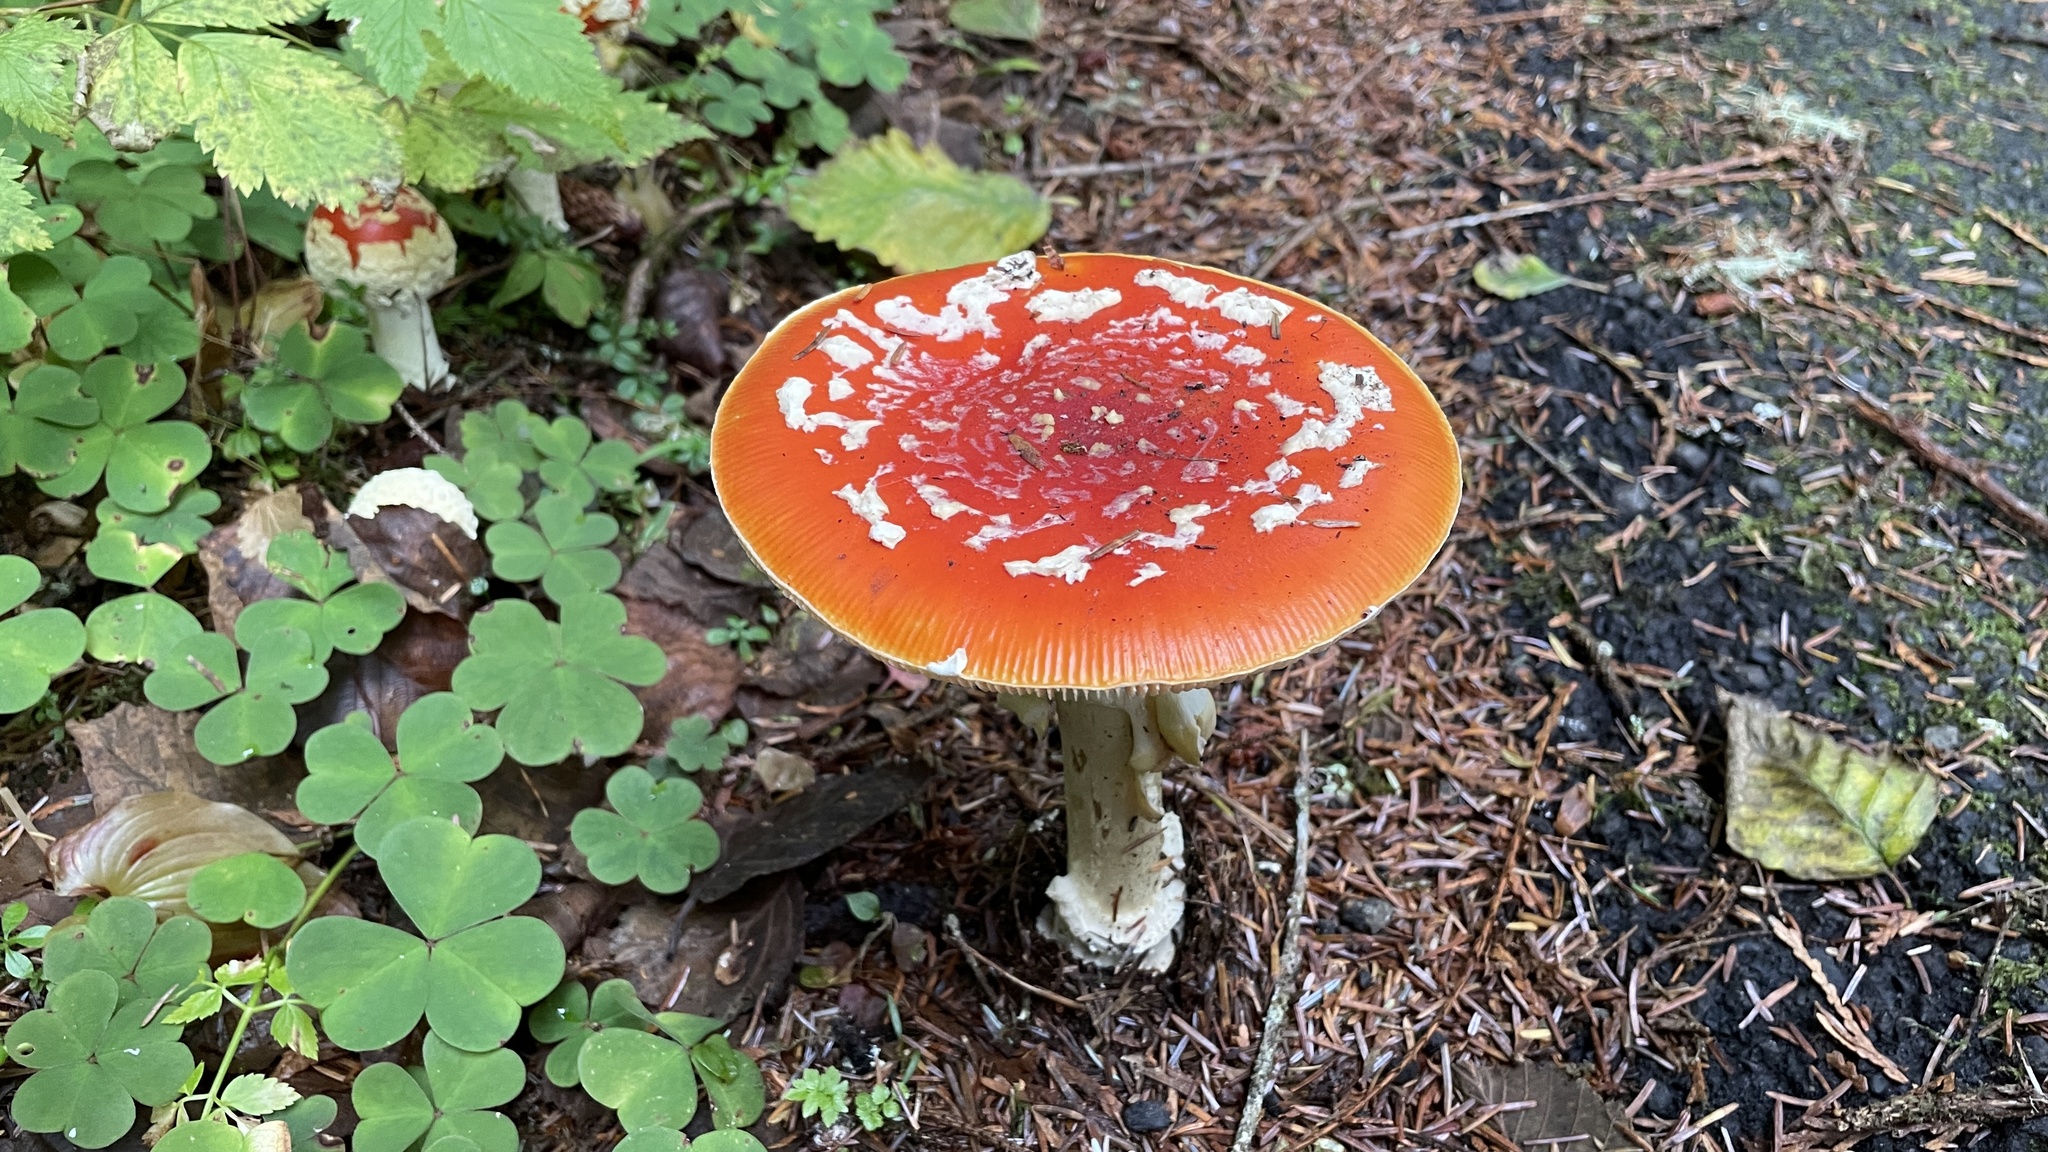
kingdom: Fungi
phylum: Basidiomycota
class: Agaricomycetes
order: Agaricales
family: Amanitaceae
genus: Amanita
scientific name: Amanita muscaria
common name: Fly agaric
